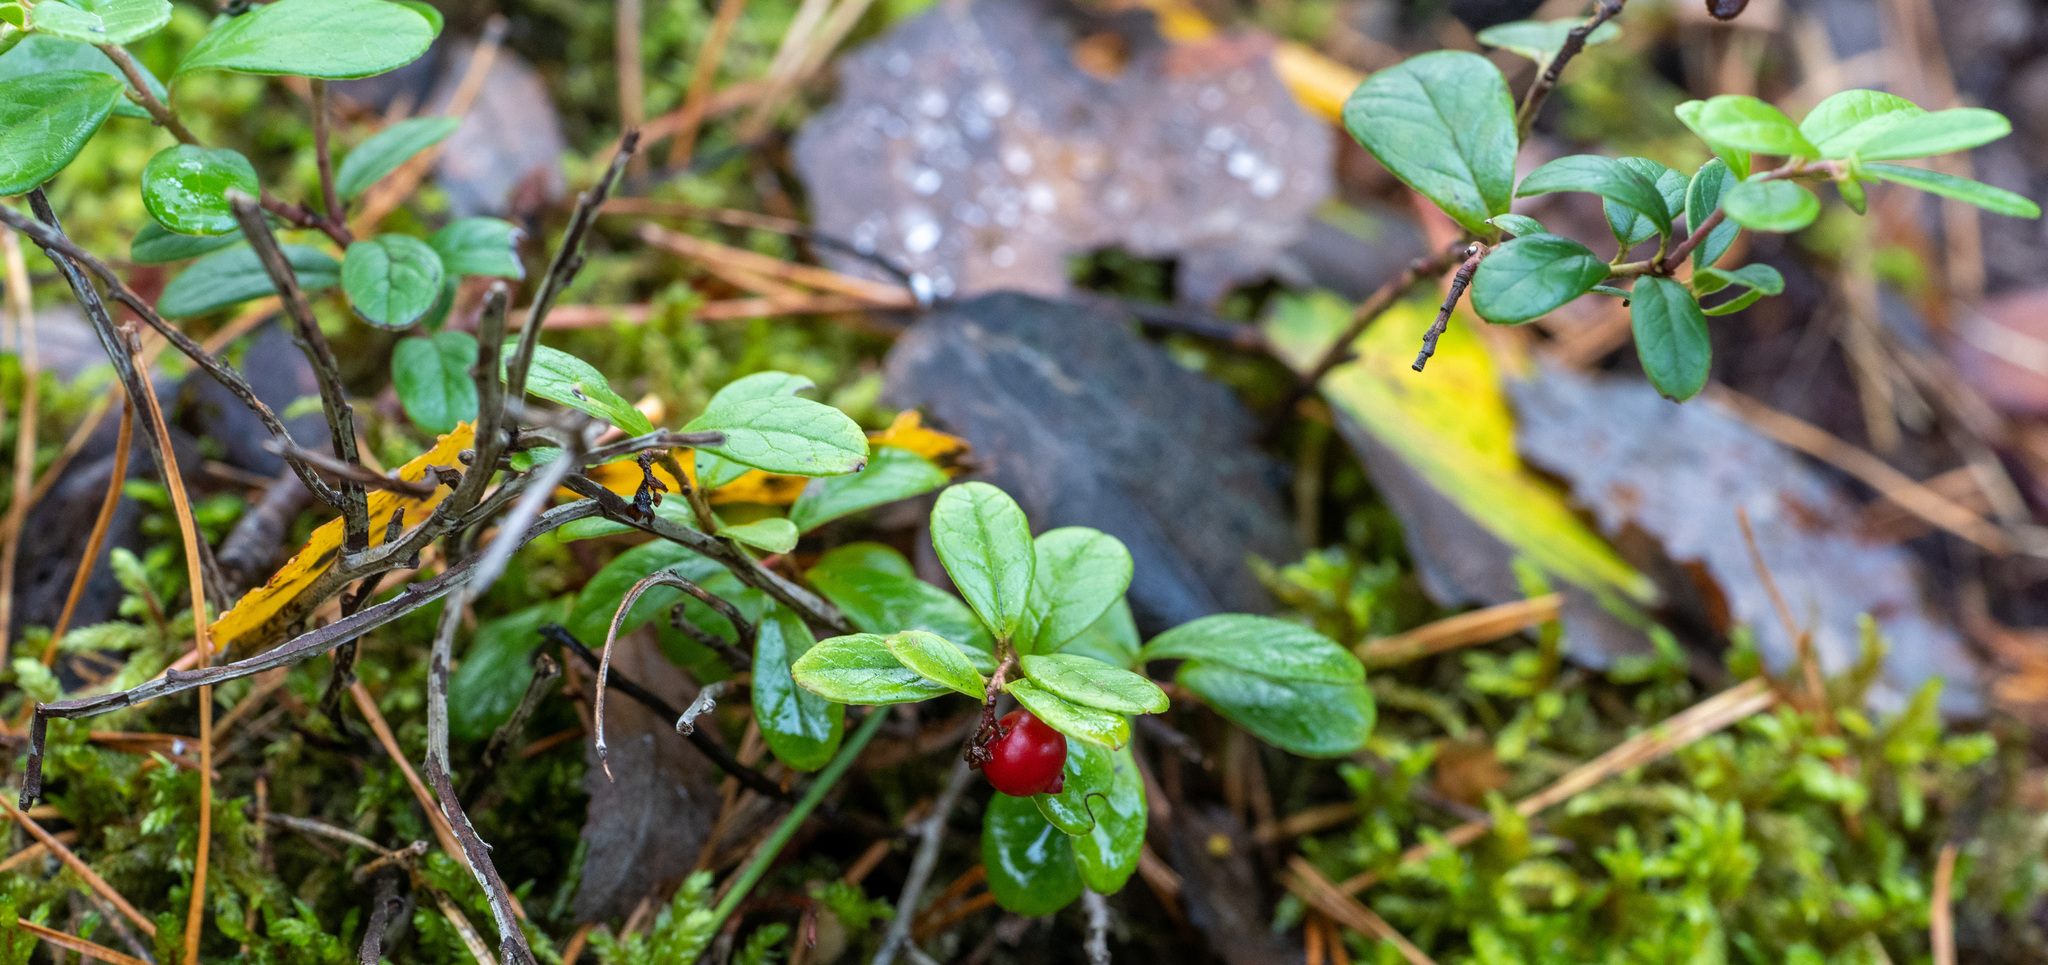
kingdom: Plantae
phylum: Tracheophyta
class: Magnoliopsida
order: Ericales
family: Ericaceae
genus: Vaccinium
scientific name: Vaccinium vitis-idaea
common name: Cowberry
